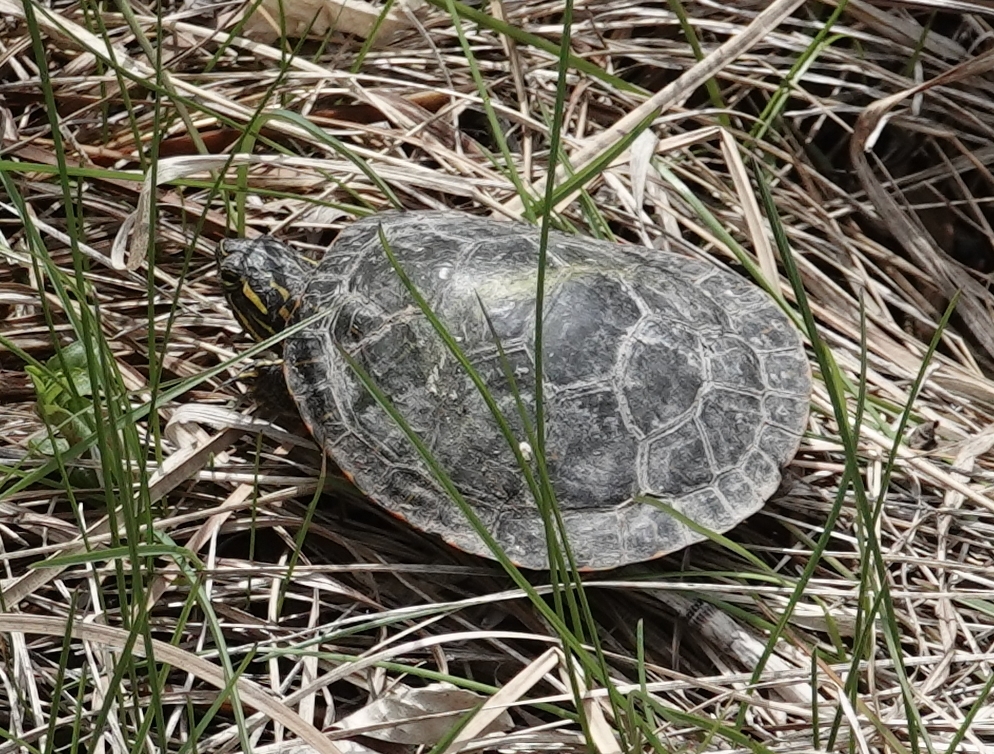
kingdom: Animalia
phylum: Chordata
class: Testudines
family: Emydidae
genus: Chrysemys
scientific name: Chrysemys picta
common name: Painted turtle
